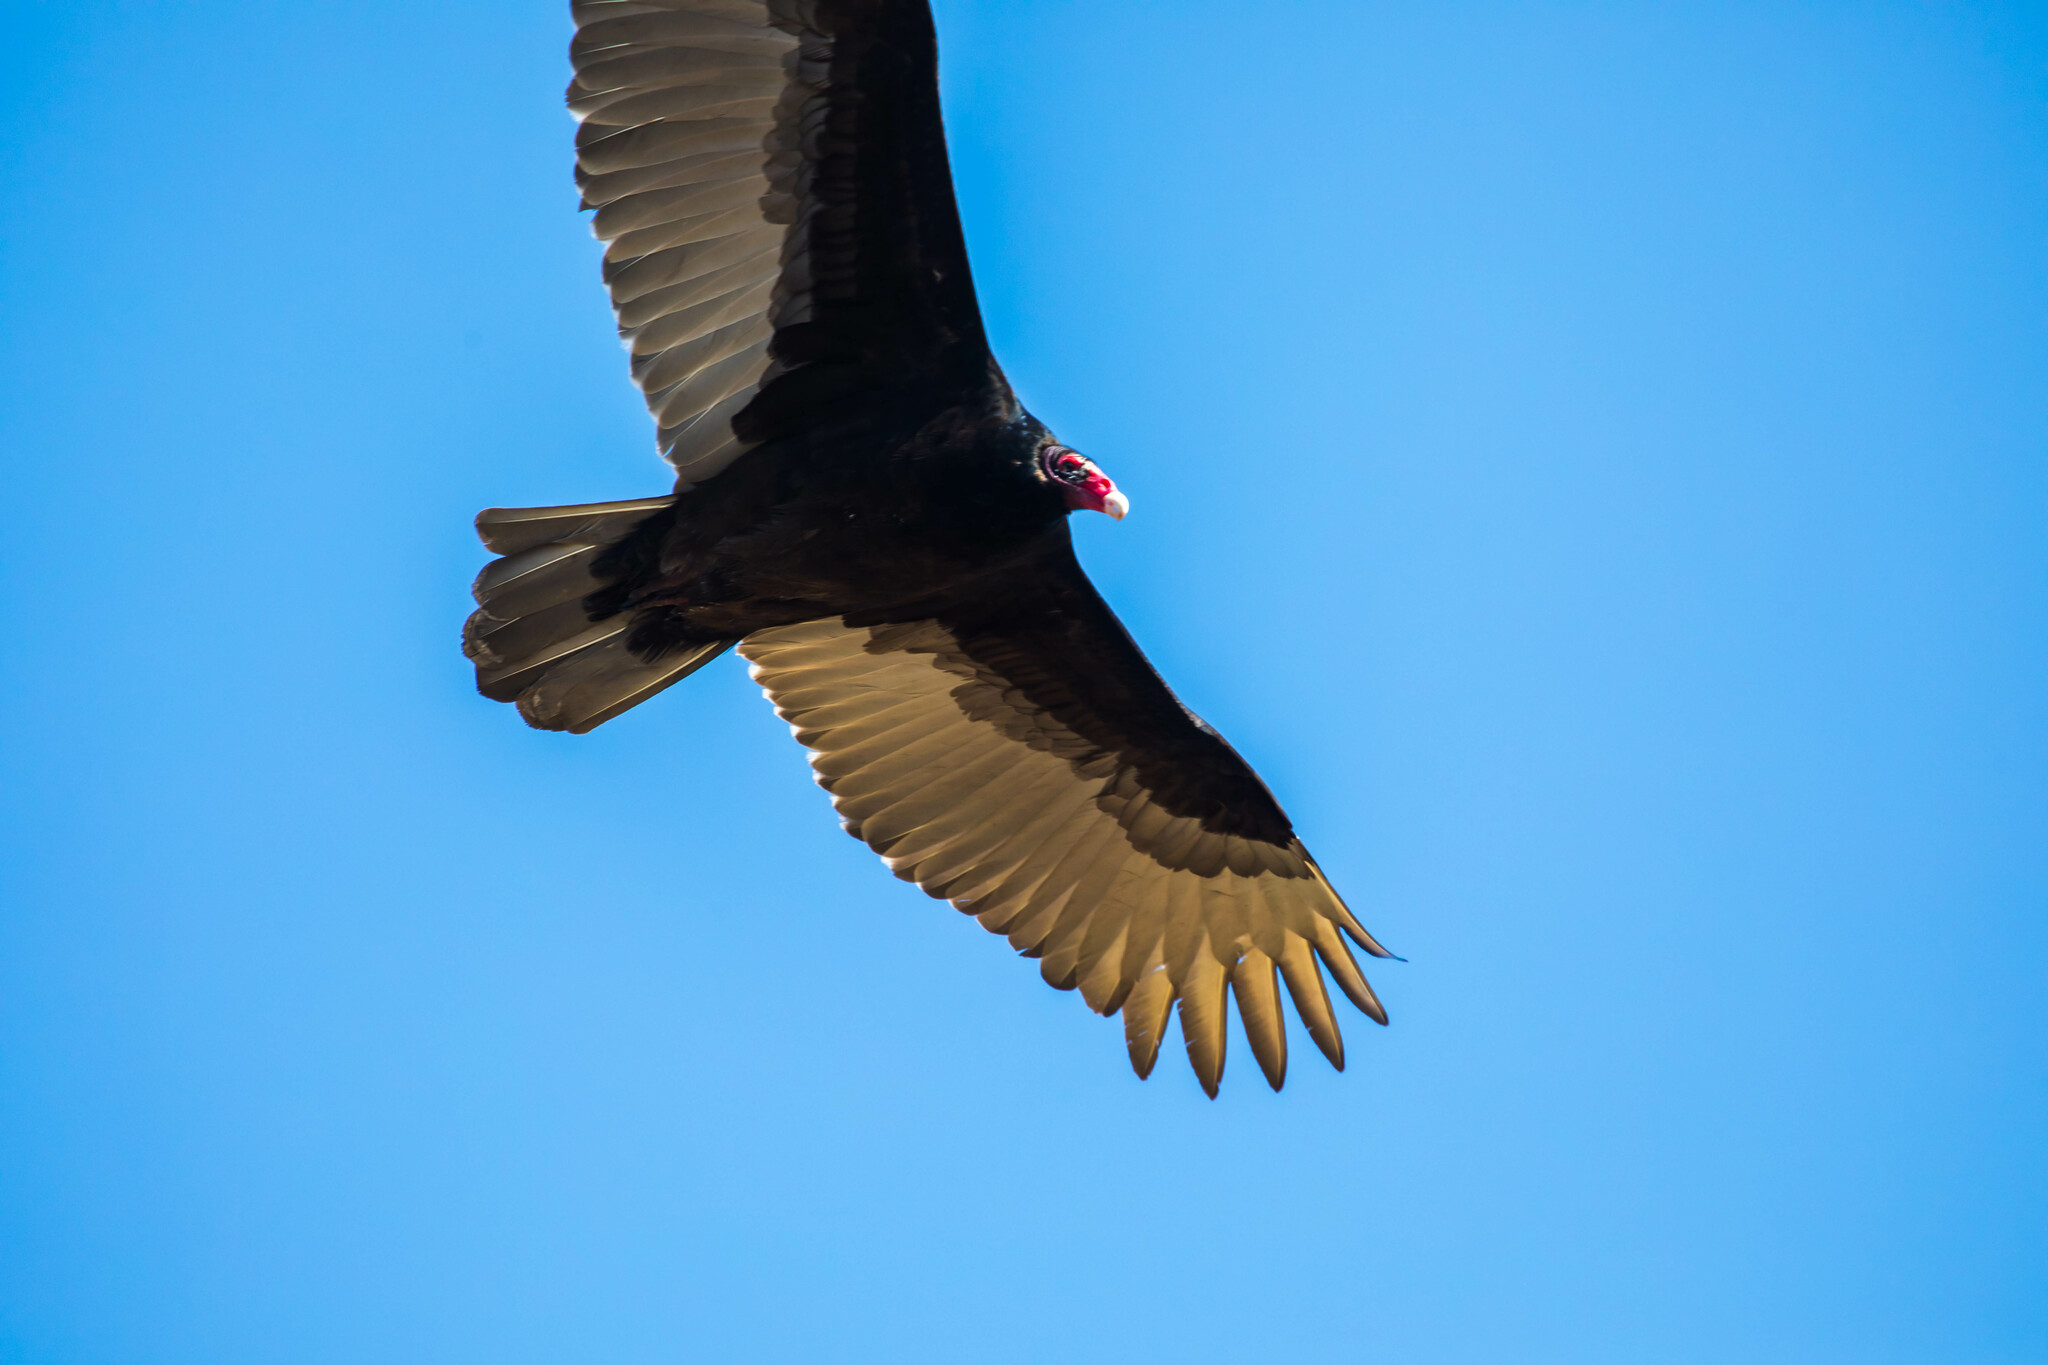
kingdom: Animalia
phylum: Chordata
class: Aves
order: Accipitriformes
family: Cathartidae
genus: Cathartes
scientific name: Cathartes aura
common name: Turkey vulture
